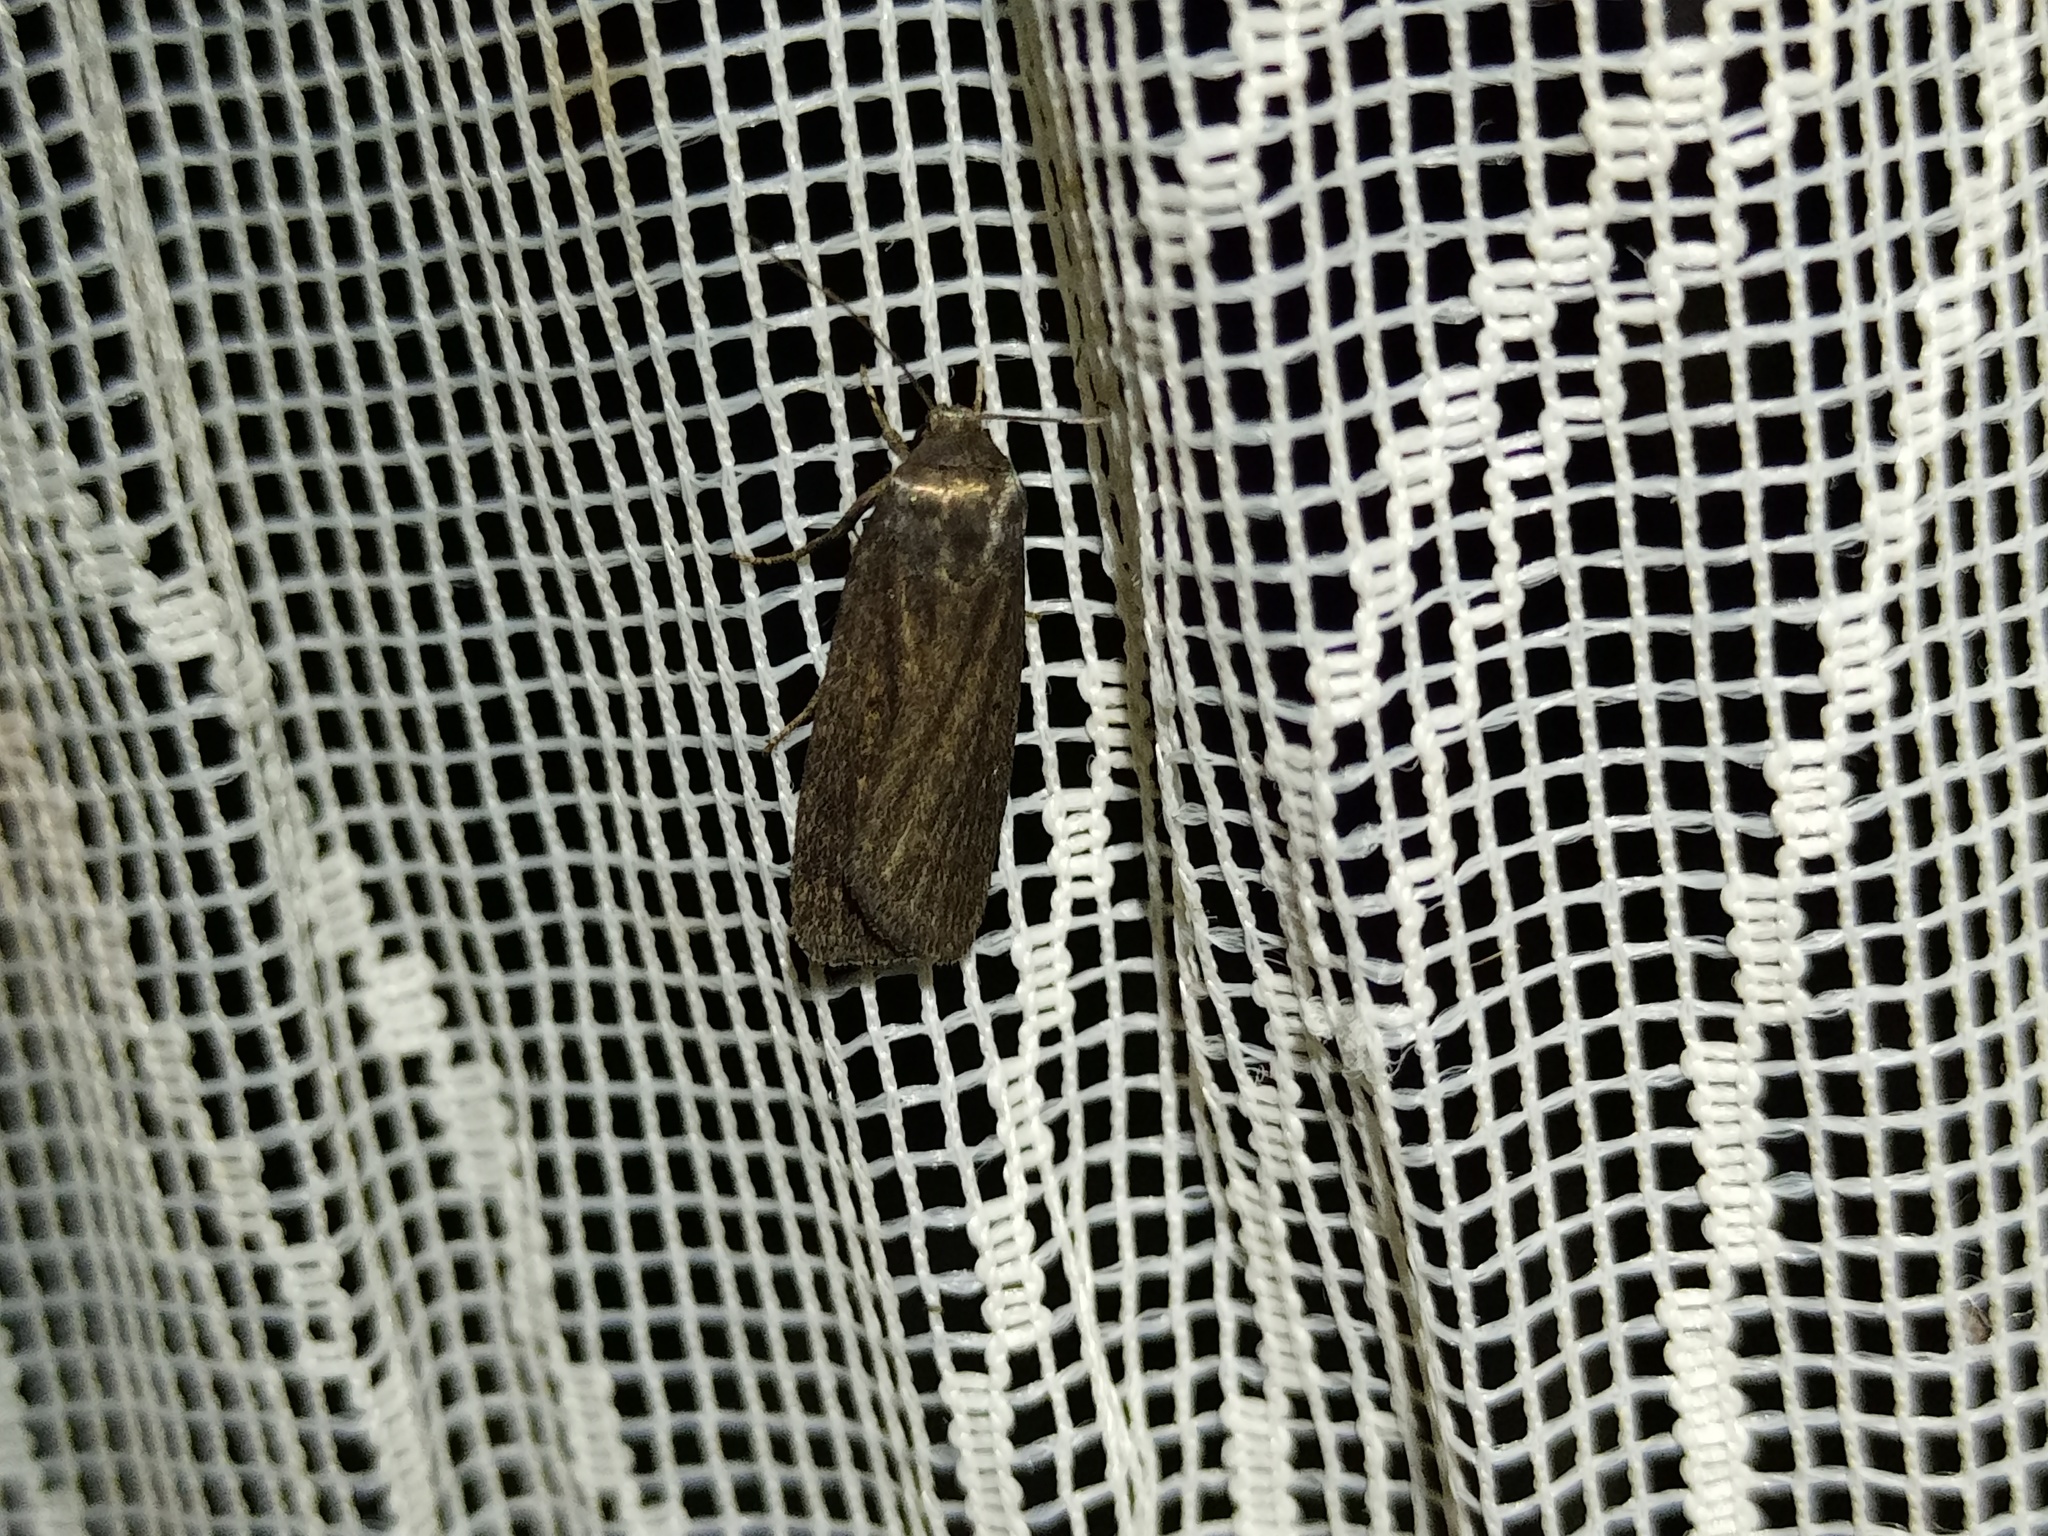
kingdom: Animalia
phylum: Arthropoda
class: Insecta
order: Lepidoptera
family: Noctuidae
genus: Athetis
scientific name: Athetis lepigone
